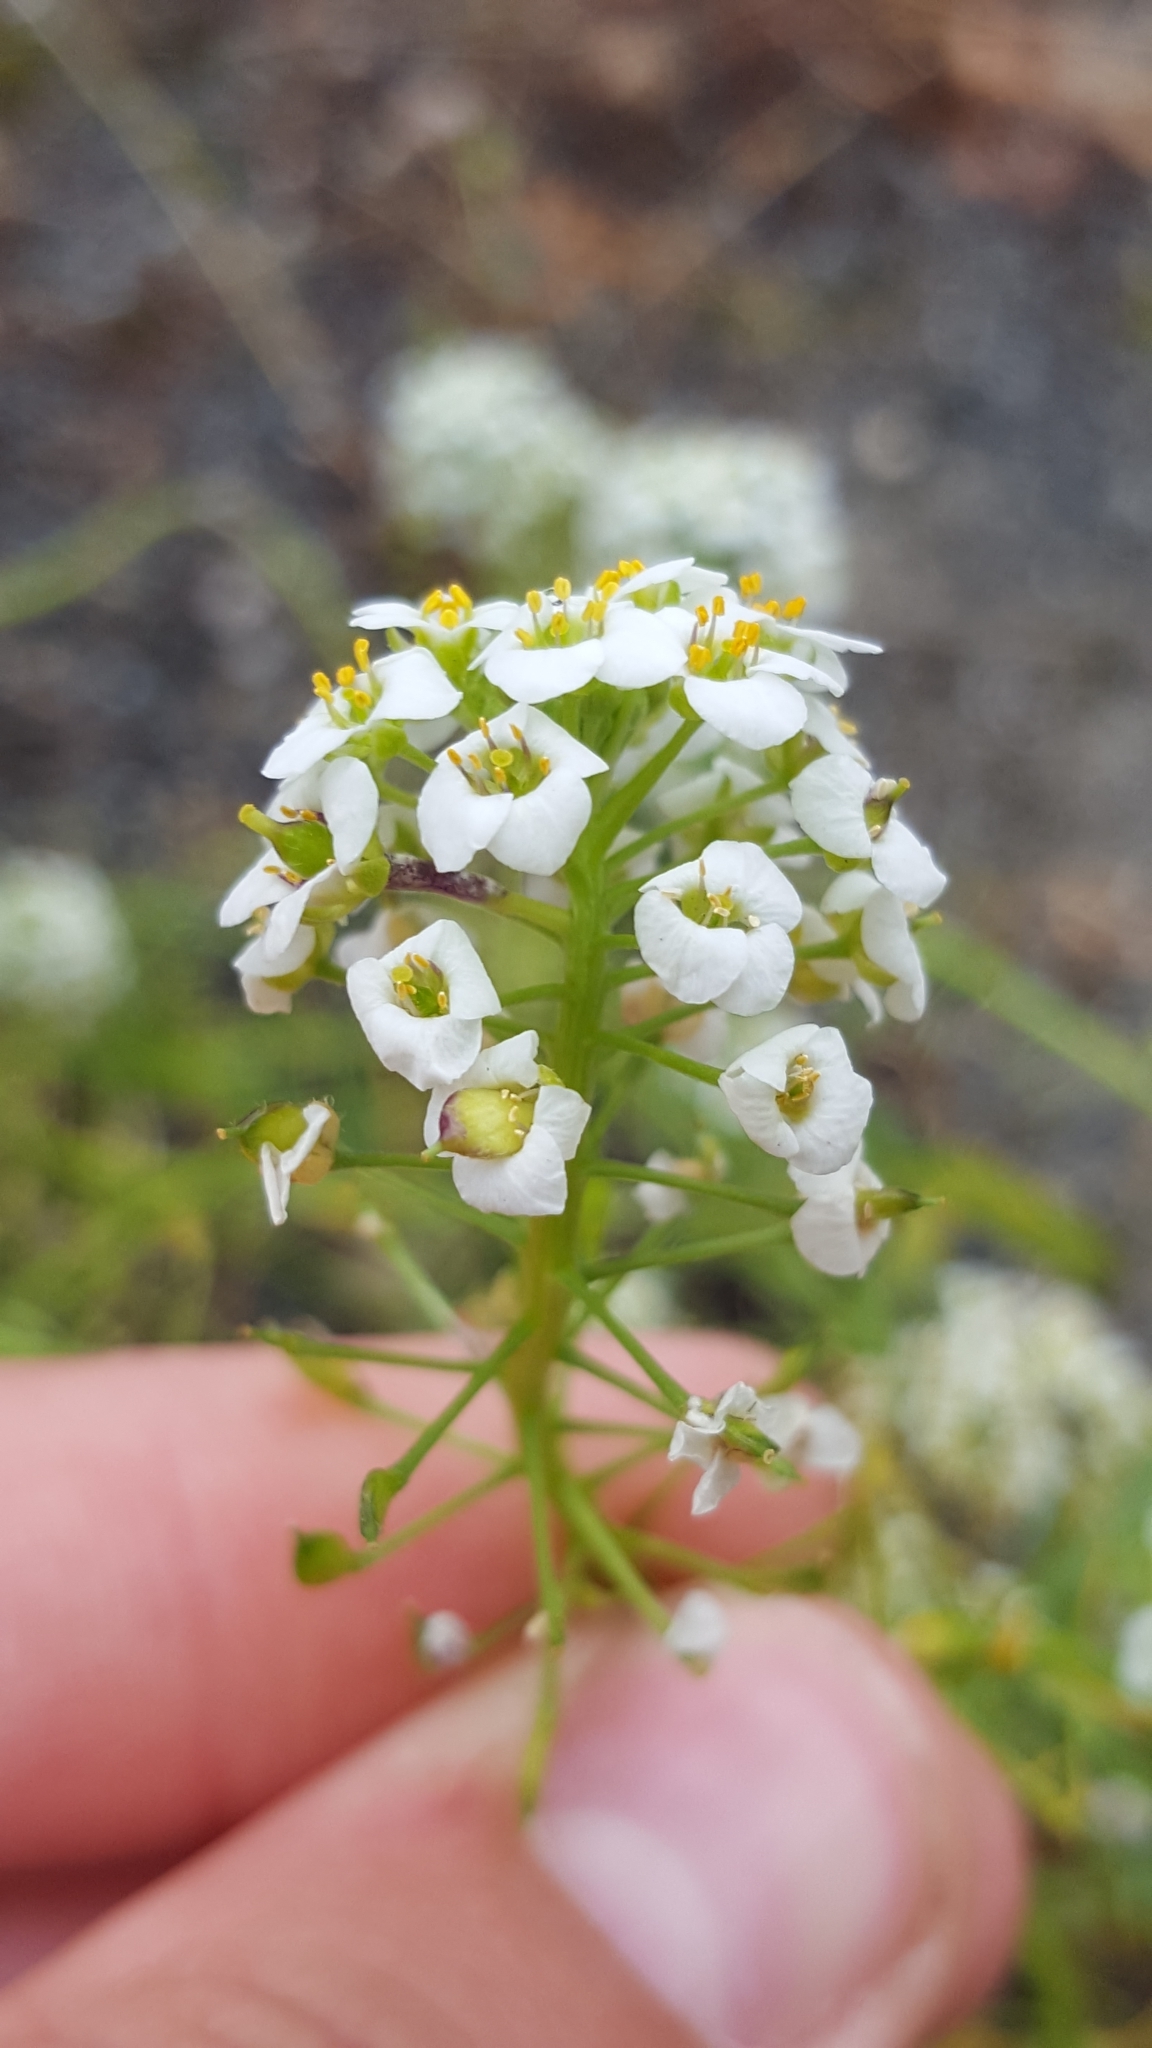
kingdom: Plantae
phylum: Tracheophyta
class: Magnoliopsida
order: Brassicales
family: Brassicaceae
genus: Lobularia
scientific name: Lobularia maritima
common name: Sweet alison
